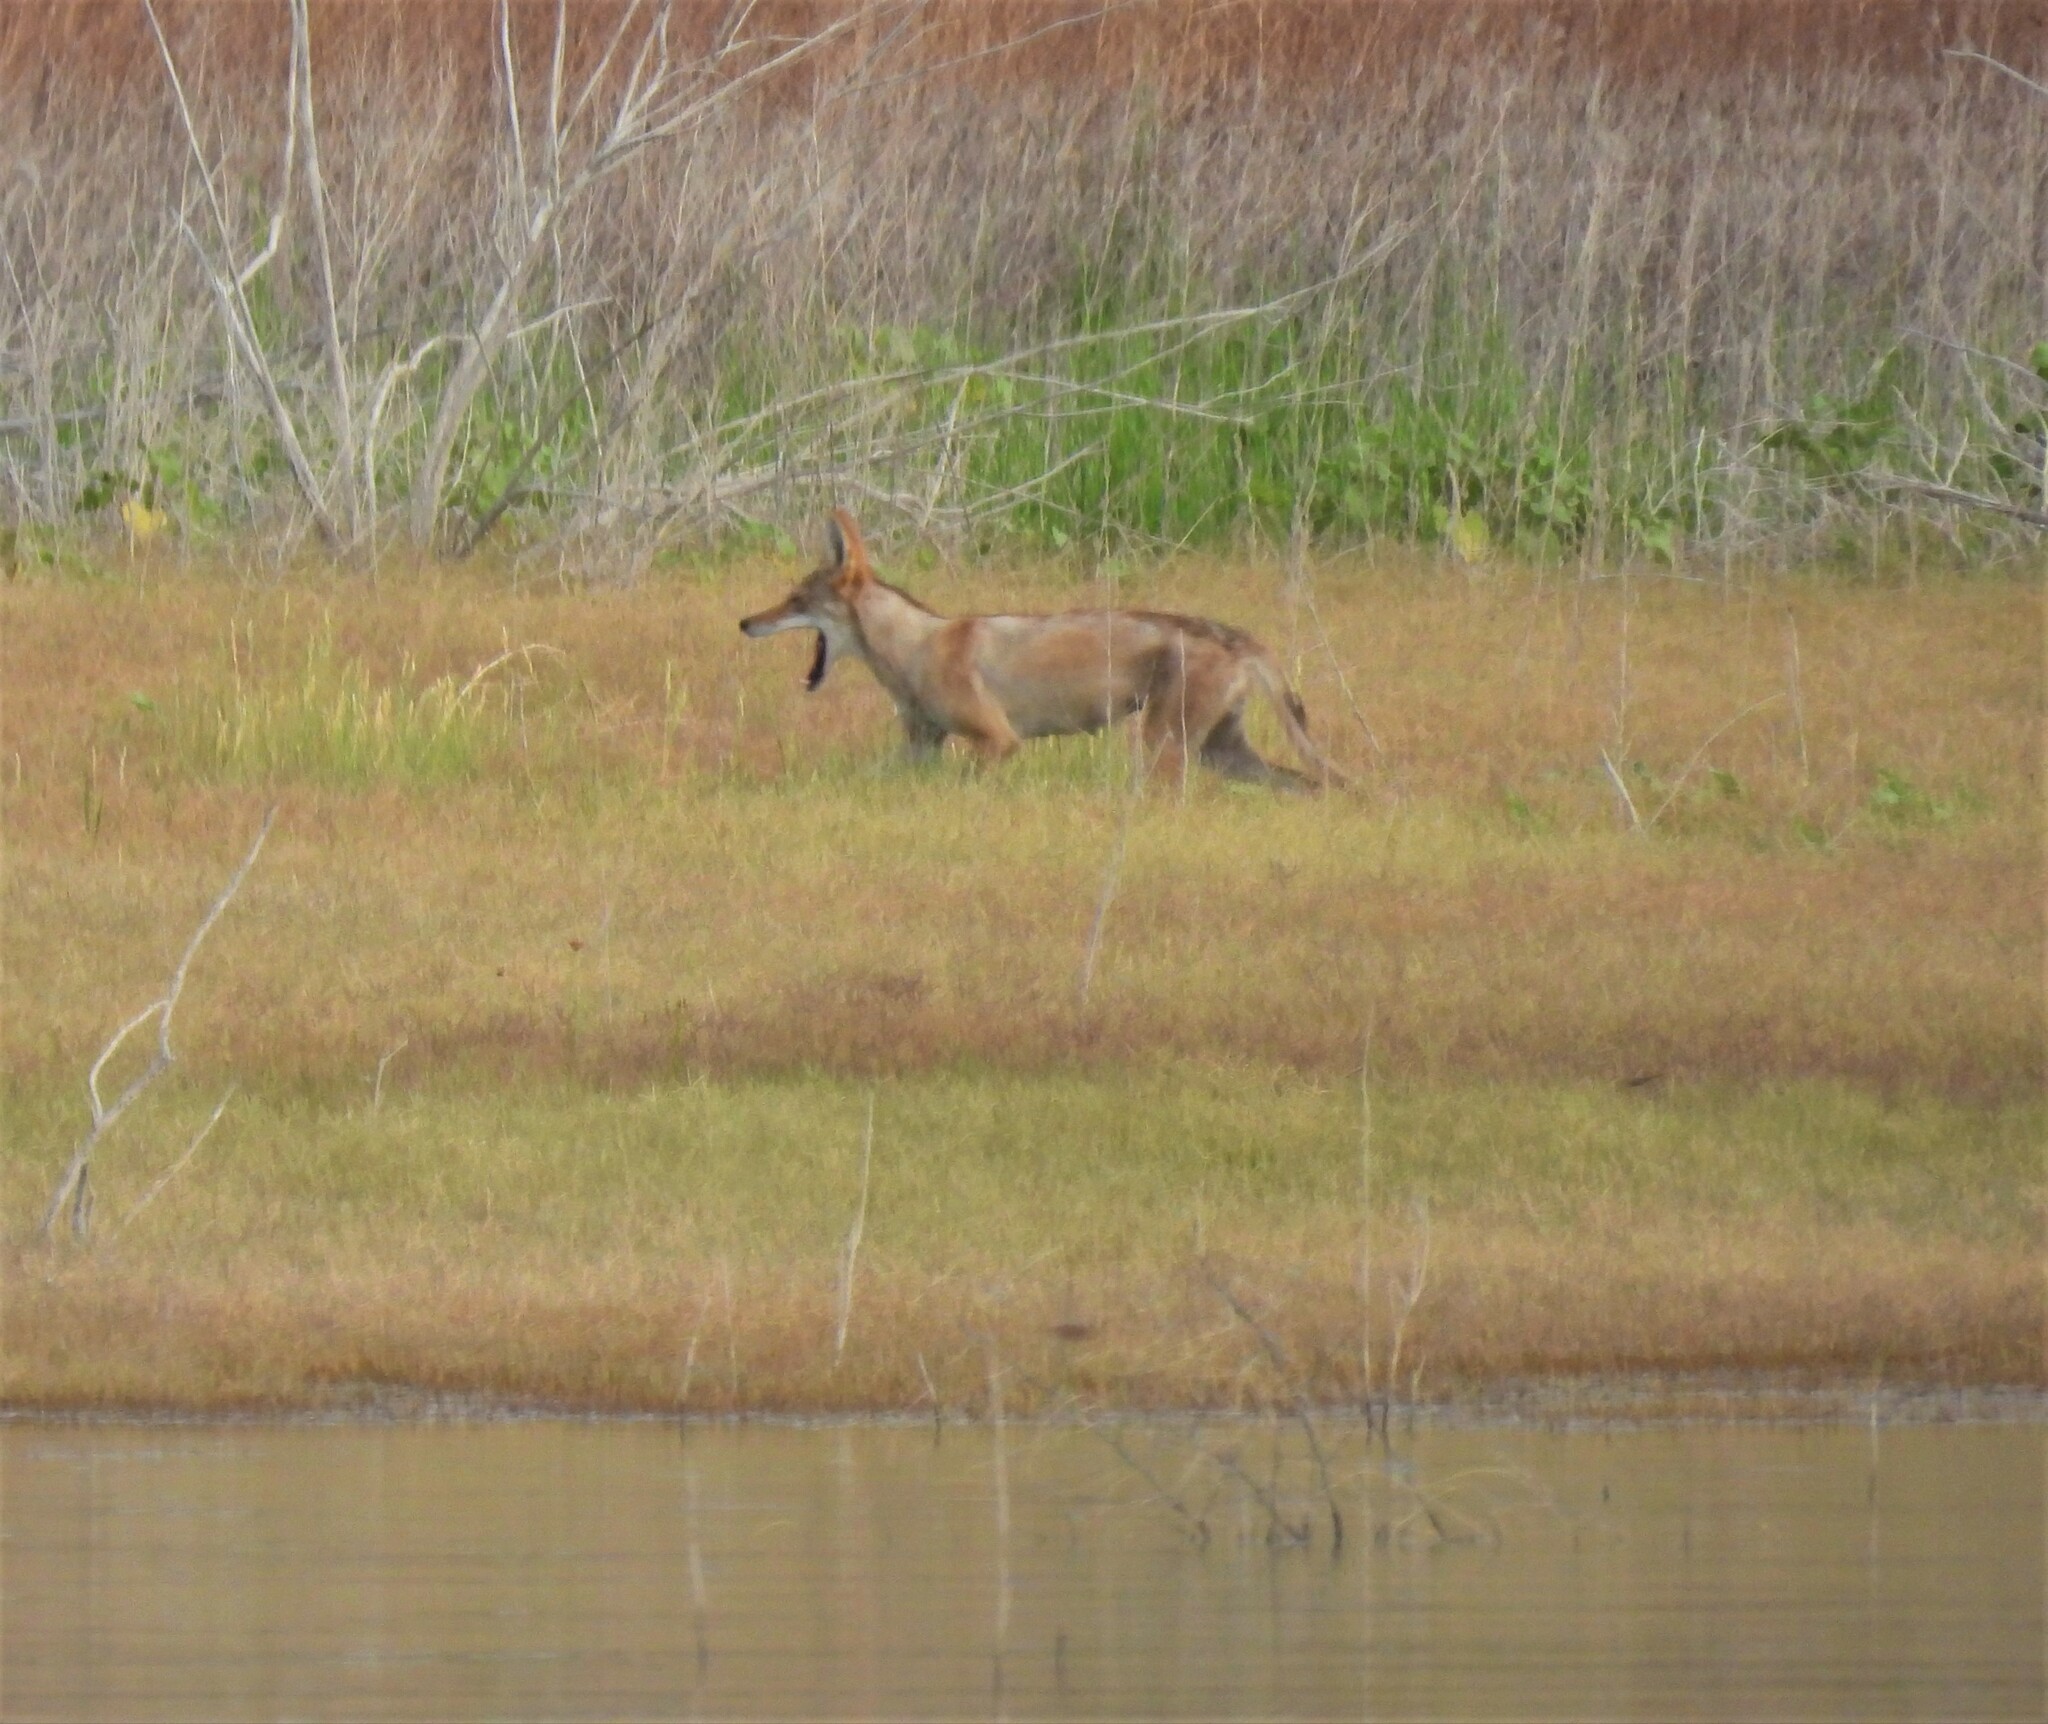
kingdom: Animalia
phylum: Chordata
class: Mammalia
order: Carnivora
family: Canidae
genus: Canis
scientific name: Canis latrans
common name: Coyote
